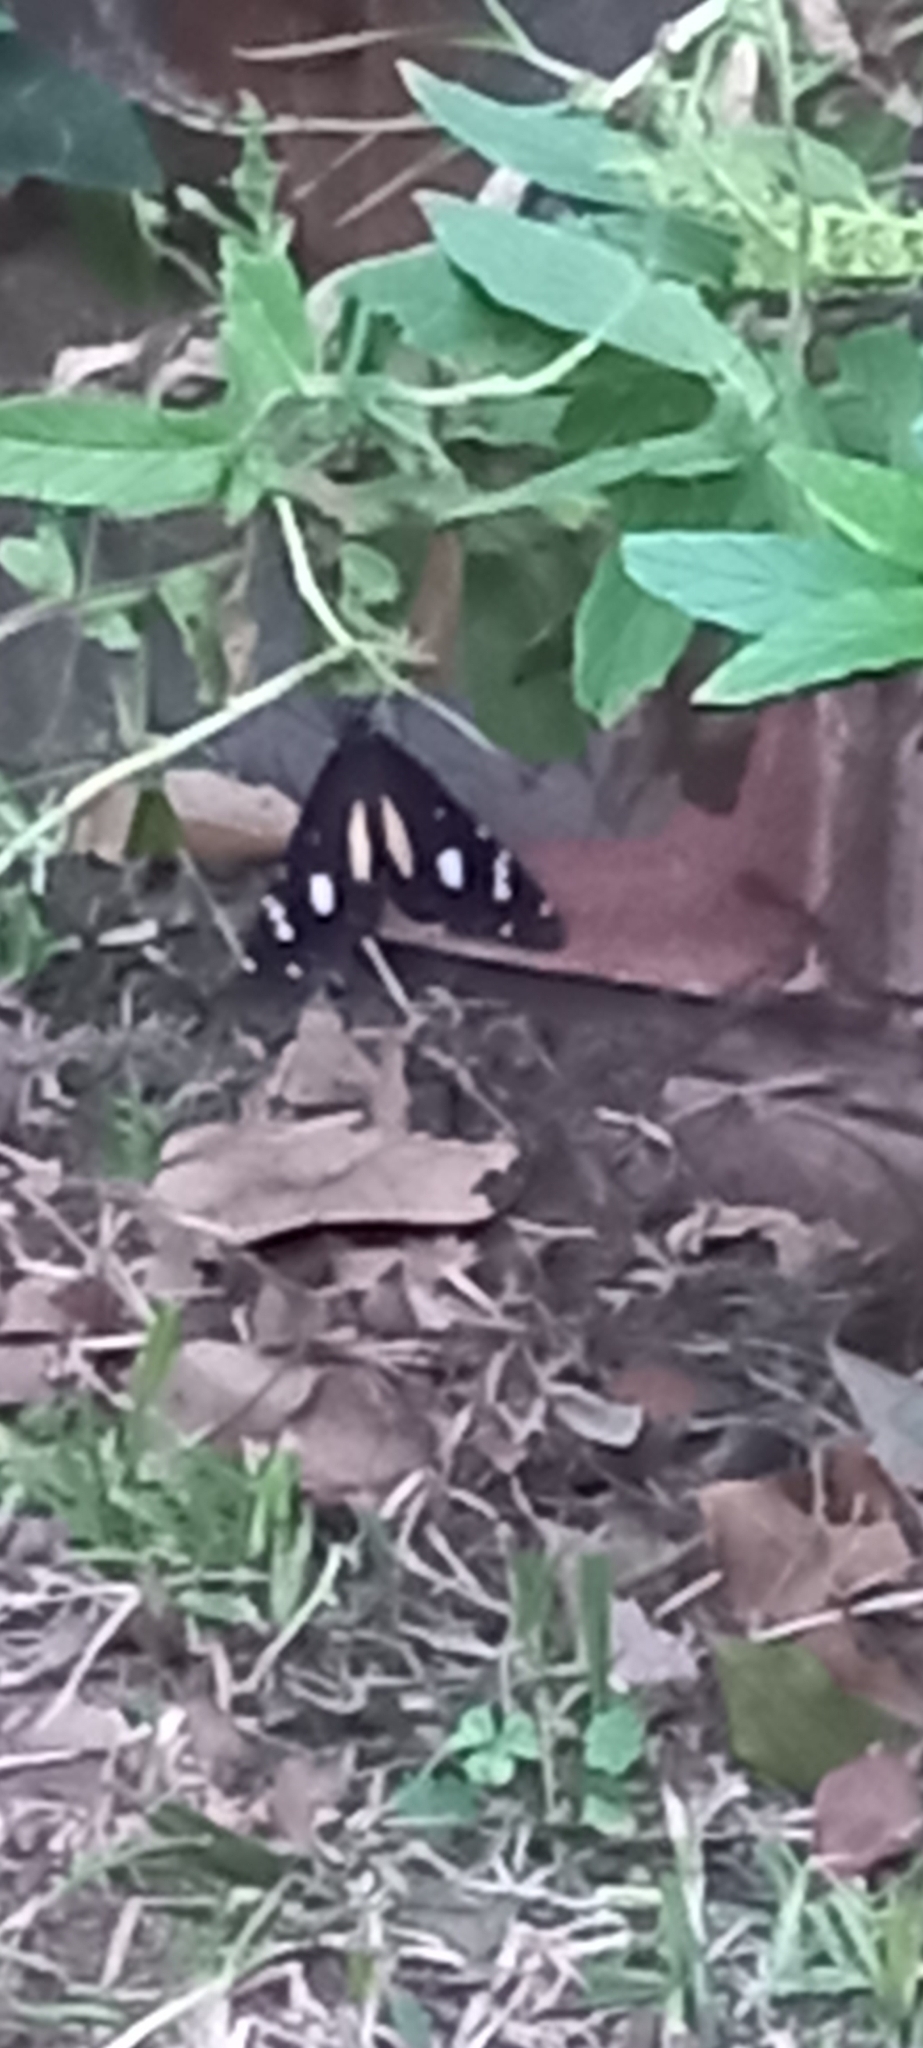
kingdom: Animalia
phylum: Arthropoda
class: Insecta
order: Lepidoptera
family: Nymphalidae
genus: Amauris
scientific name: Amauris albimaculata
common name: Layman
